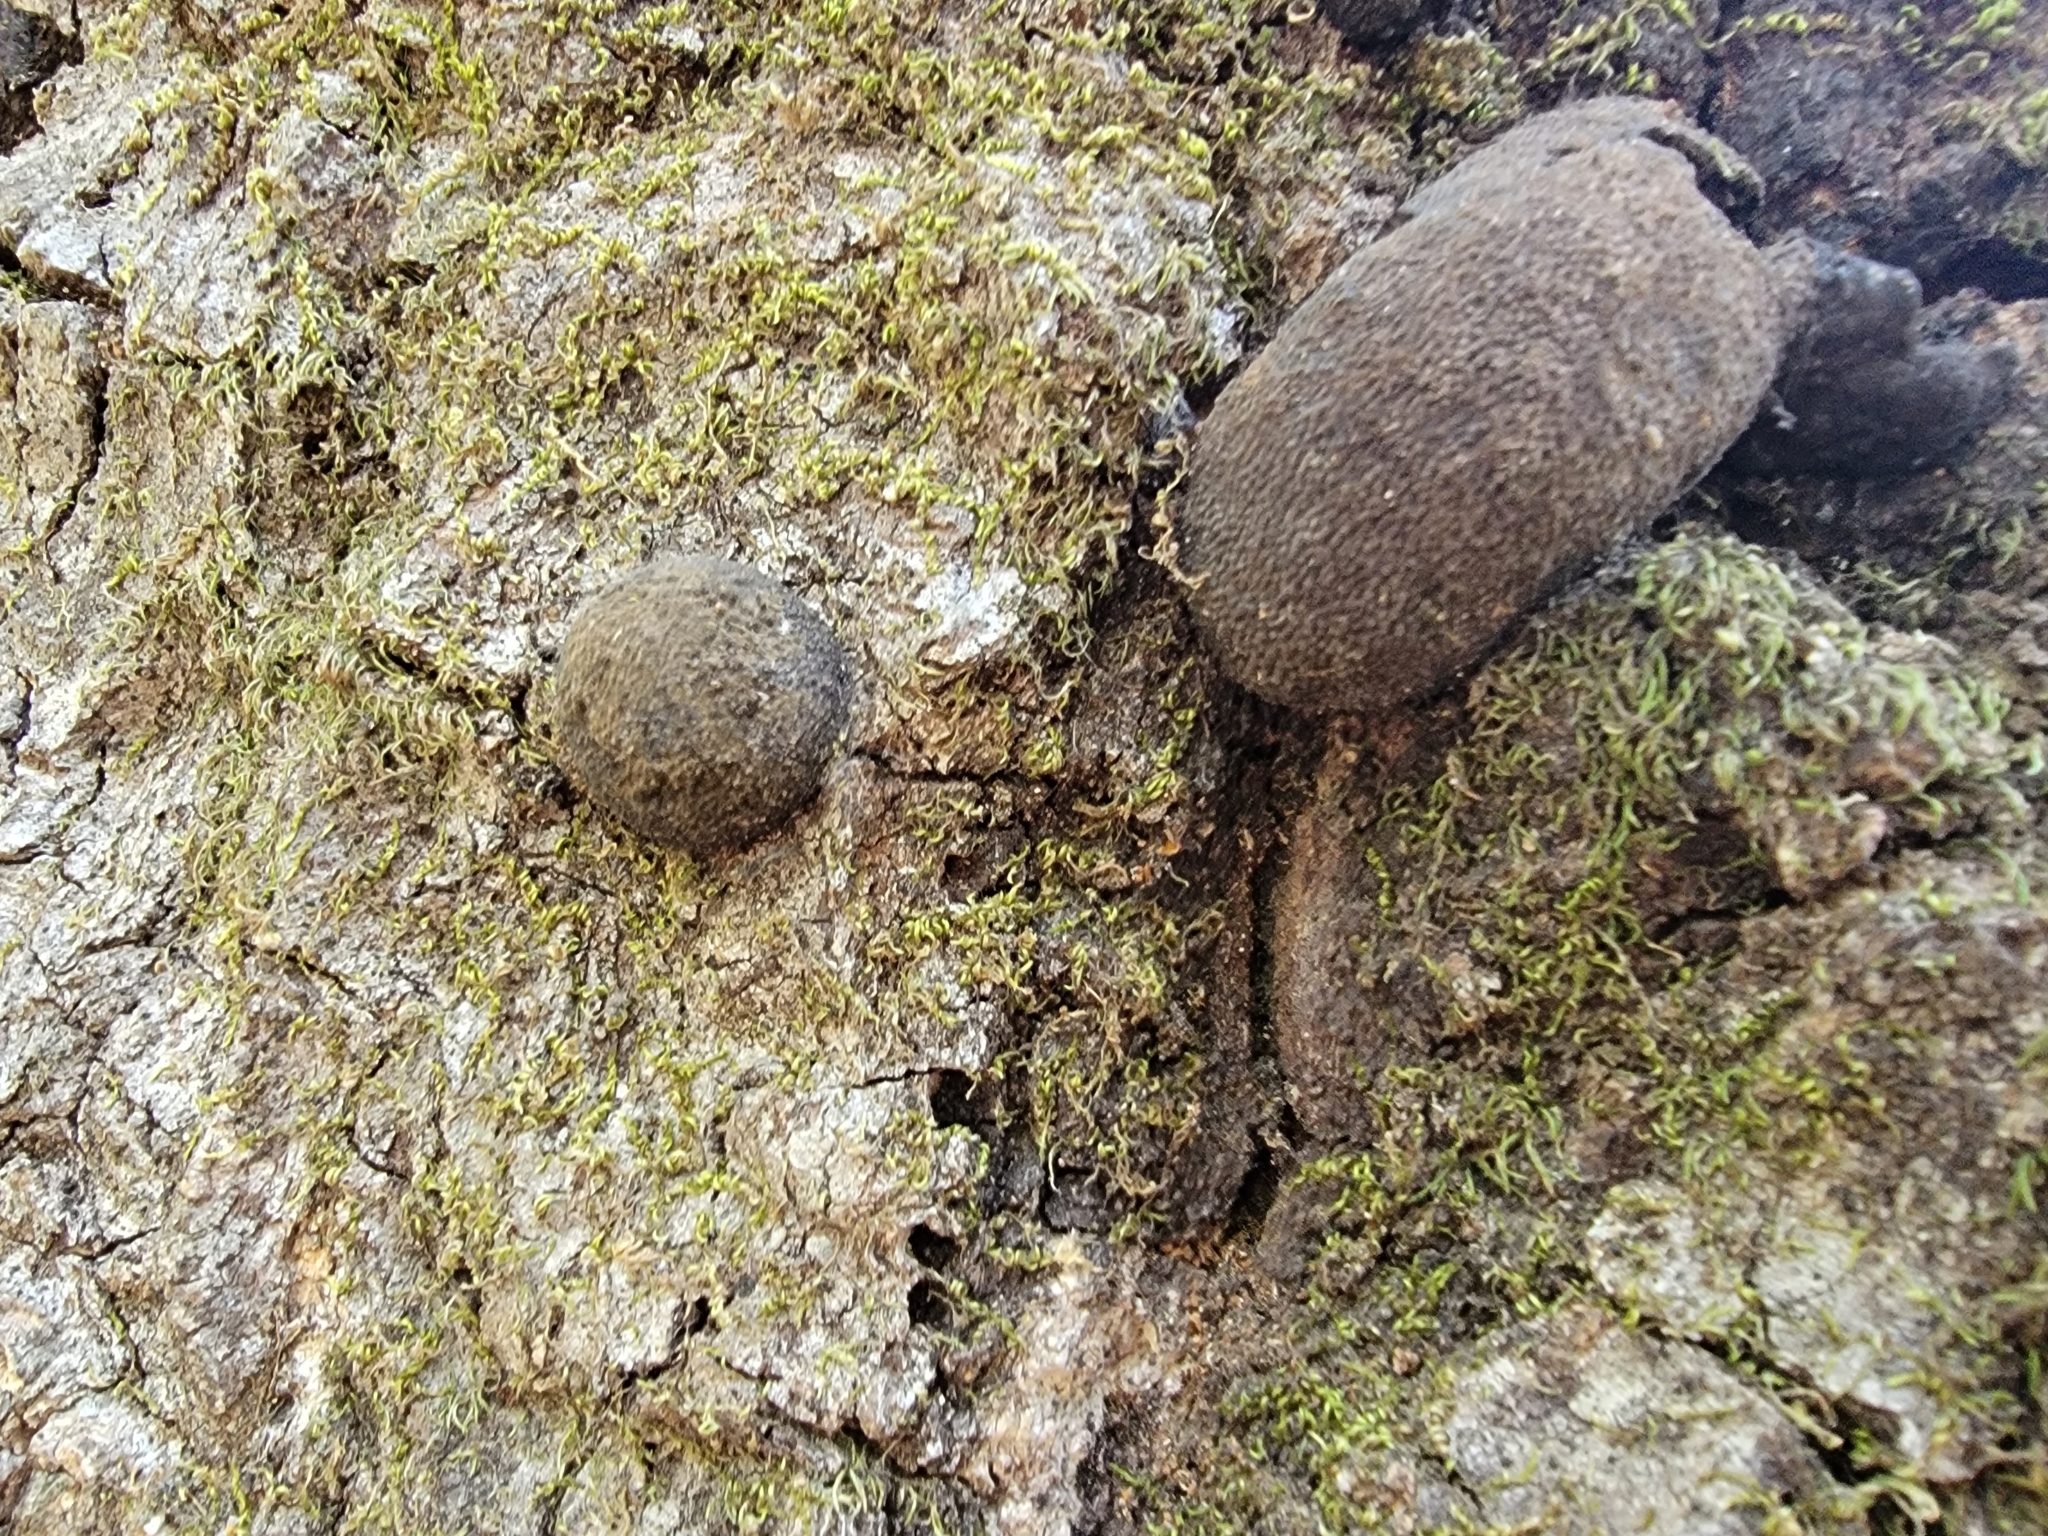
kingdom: Fungi
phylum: Ascomycota
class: Sordariomycetes
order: Xylariales
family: Hypoxylaceae
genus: Annulohypoxylon
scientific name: Annulohypoxylon thouarsianum
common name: Cramp balls
